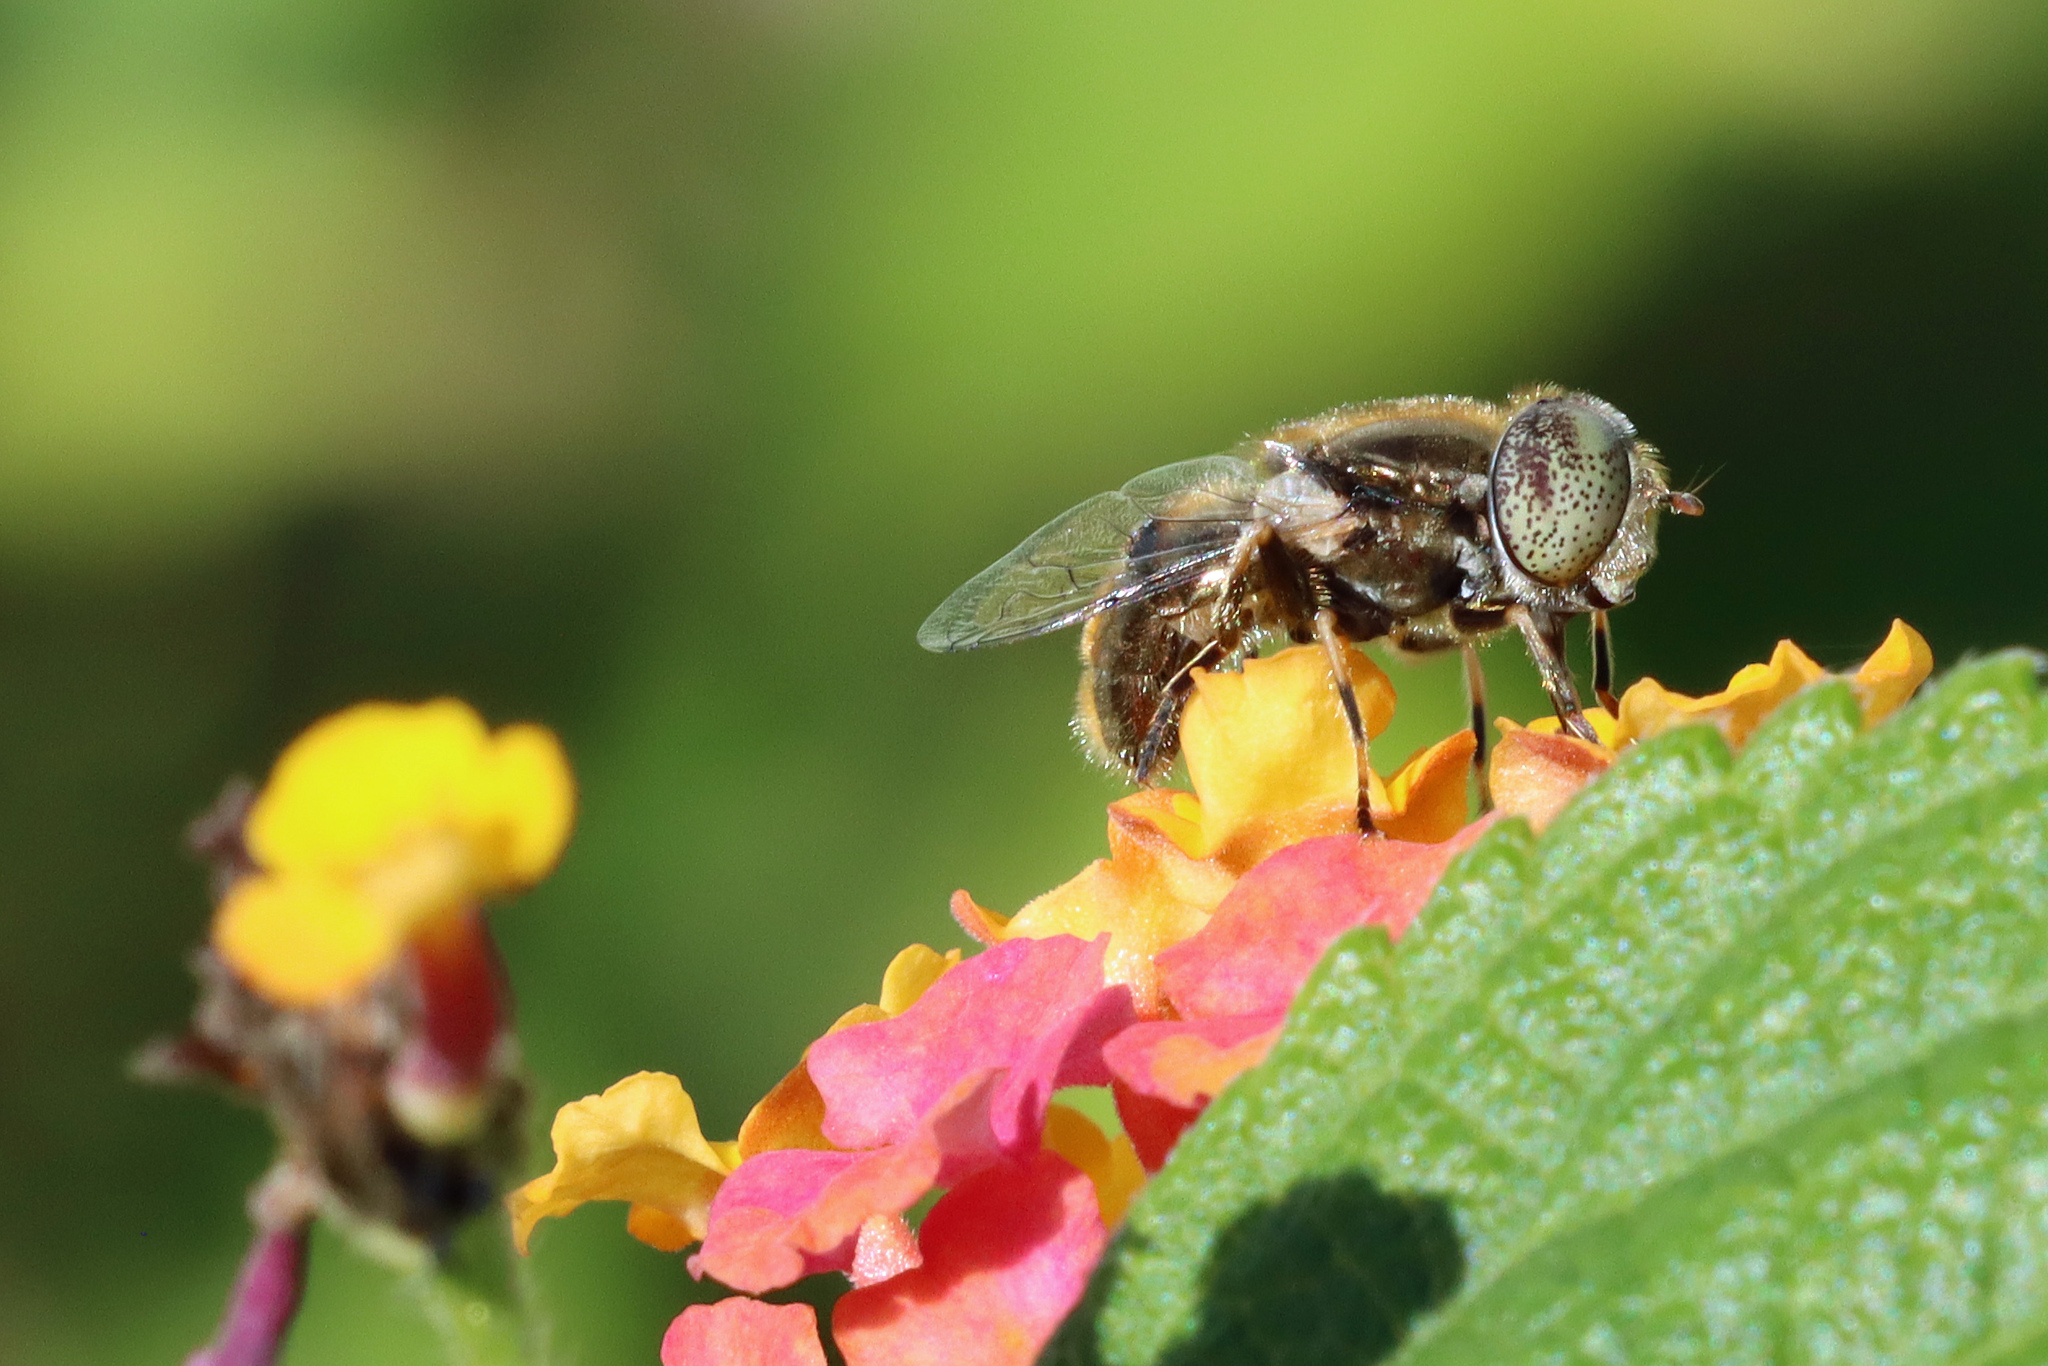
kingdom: Animalia
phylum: Arthropoda
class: Insecta
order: Diptera
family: Syrphidae
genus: Eristalinus
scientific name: Eristalinus aeneus
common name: Syrphid fly
